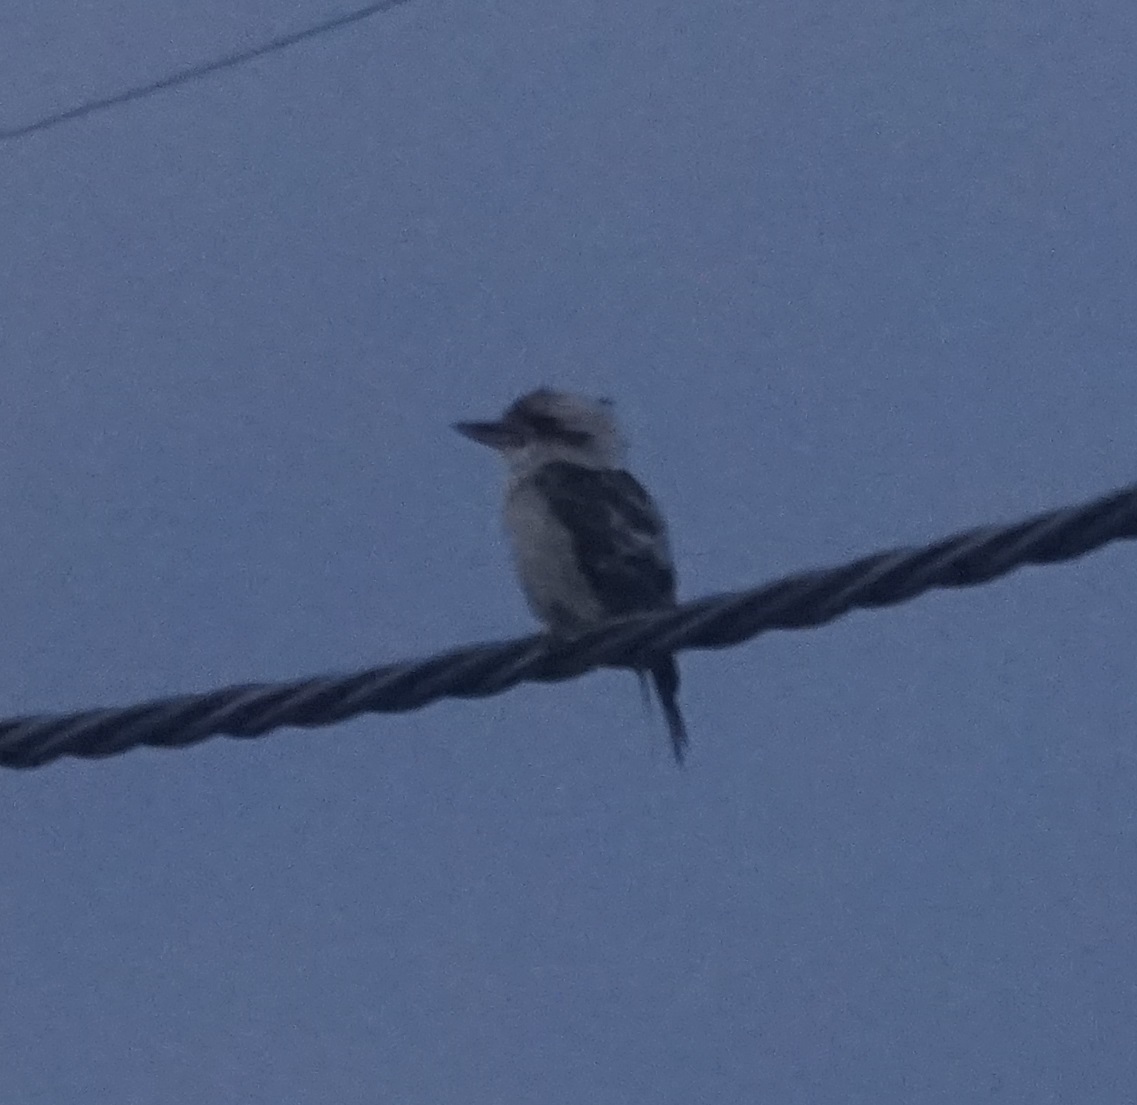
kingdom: Animalia
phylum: Chordata
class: Aves
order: Coraciiformes
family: Alcedinidae
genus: Dacelo
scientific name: Dacelo novaeguineae
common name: Laughing kookaburra
